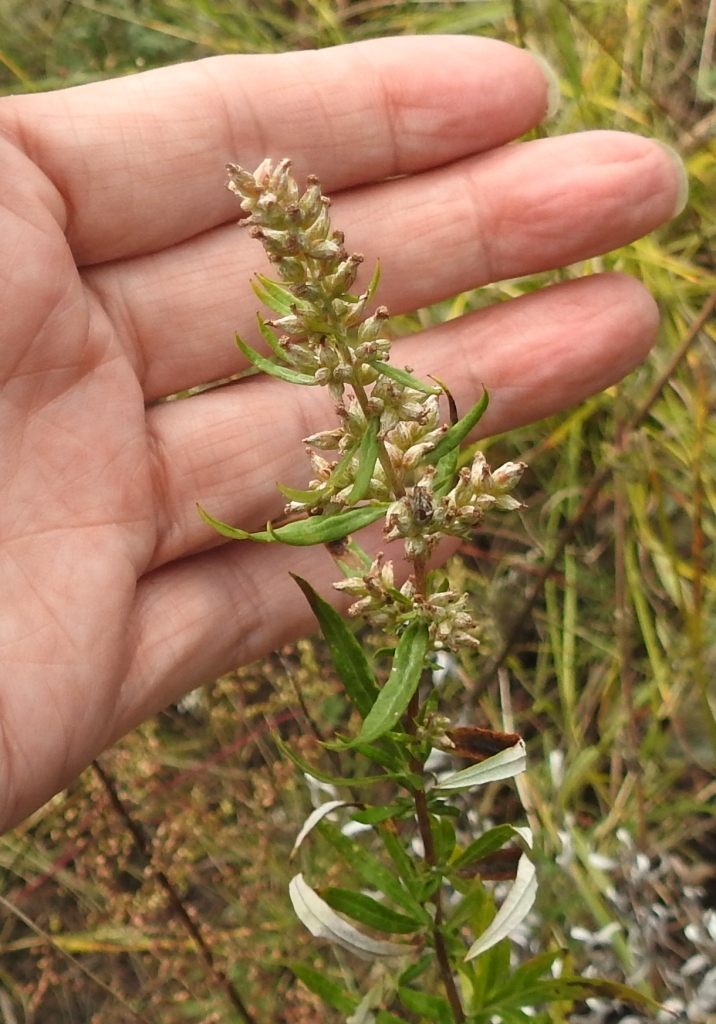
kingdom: Plantae
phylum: Tracheophyta
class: Magnoliopsida
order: Asterales
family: Asteraceae
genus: Artemisia
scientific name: Artemisia integrifolia
